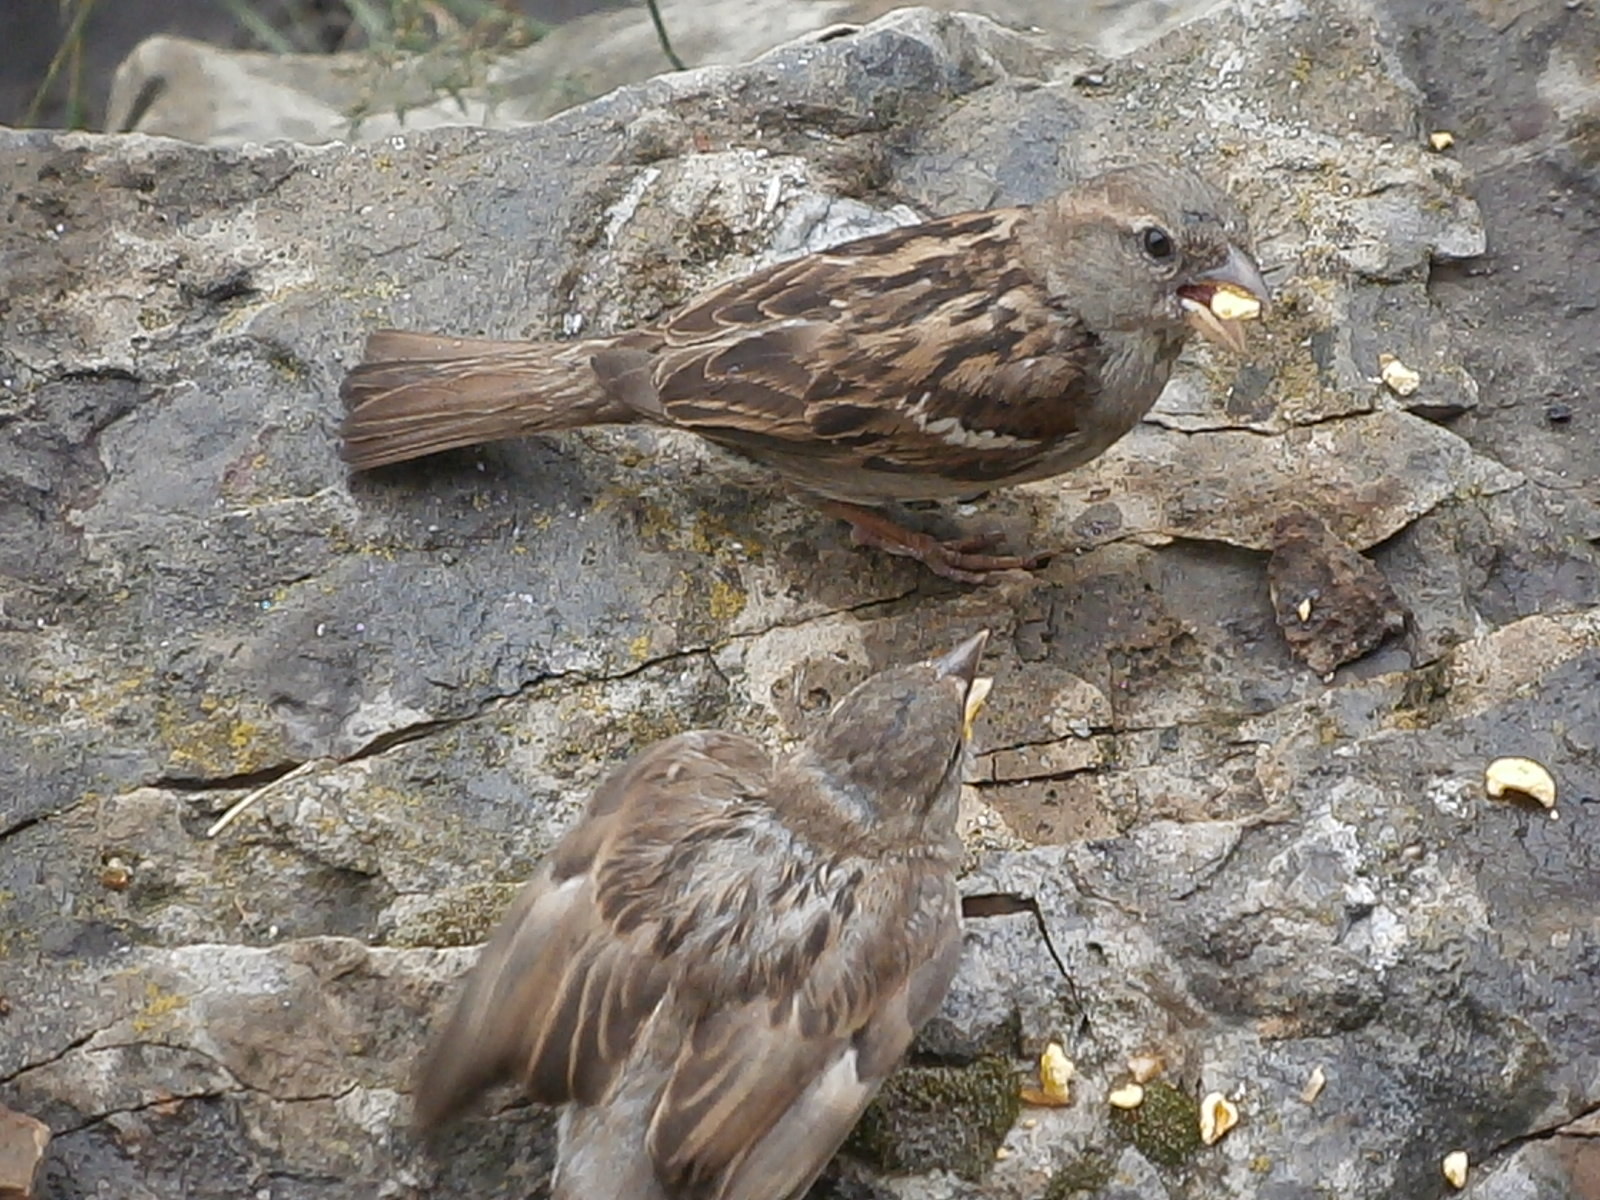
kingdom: Animalia
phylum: Chordata
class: Aves
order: Passeriformes
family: Passeridae
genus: Passer
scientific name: Passer domesticus
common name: House sparrow
